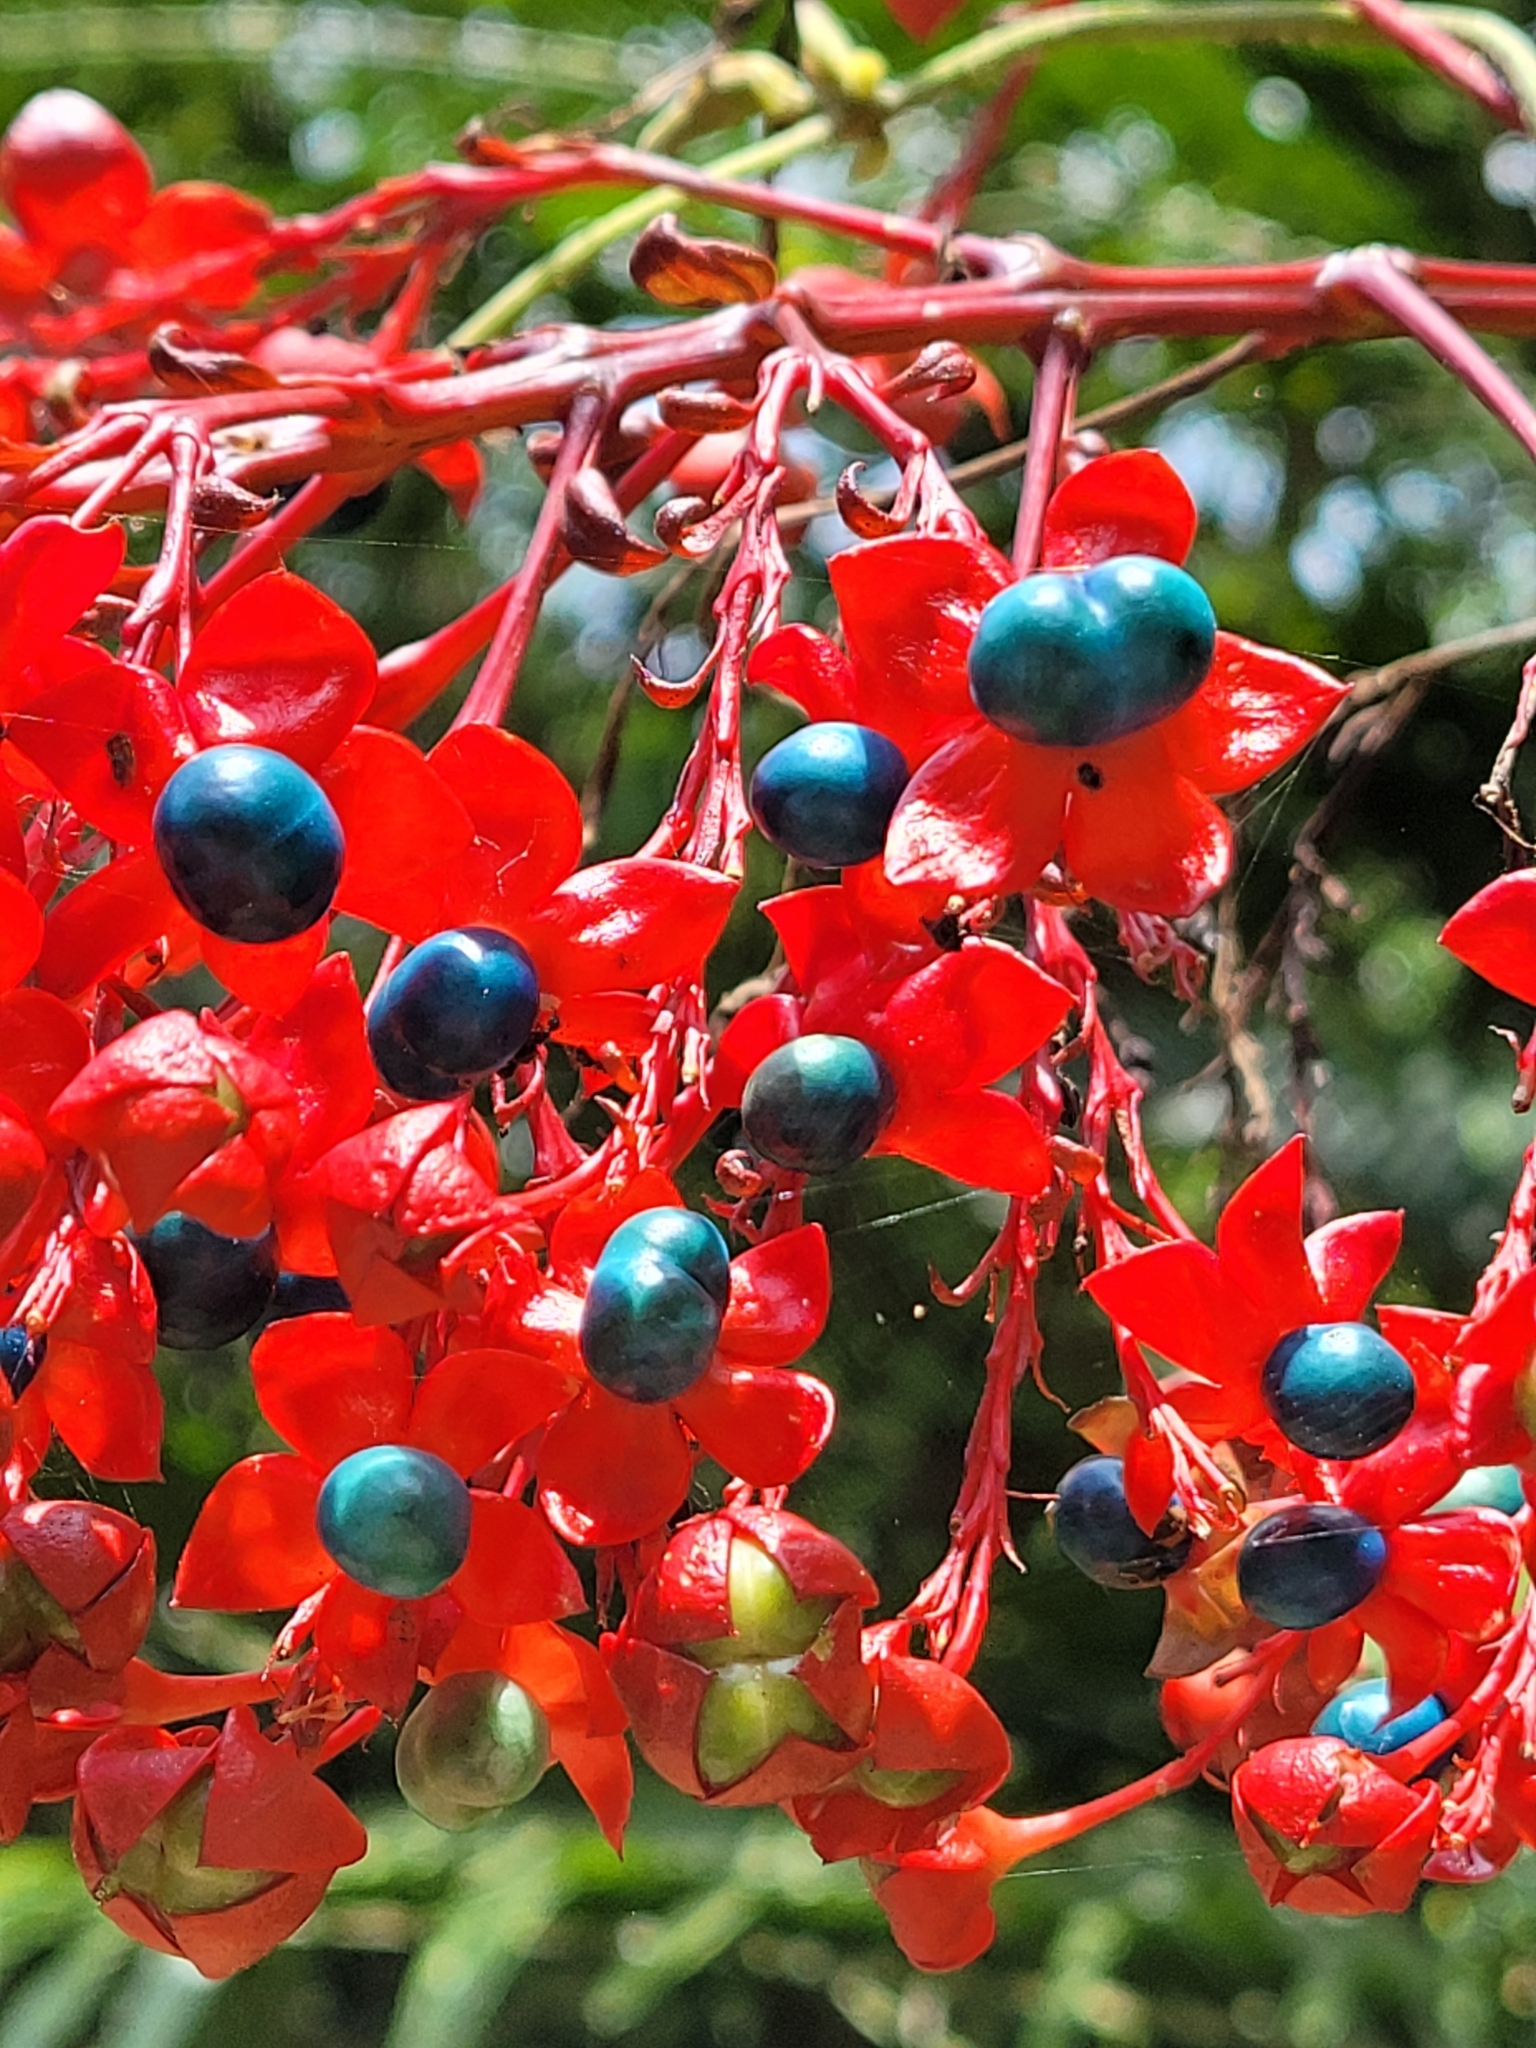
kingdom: Plantae
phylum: Tracheophyta
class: Magnoliopsida
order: Lamiales
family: Lamiaceae
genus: Clerodendrum
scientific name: Clerodendrum japonicum
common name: Japanese glorybower
